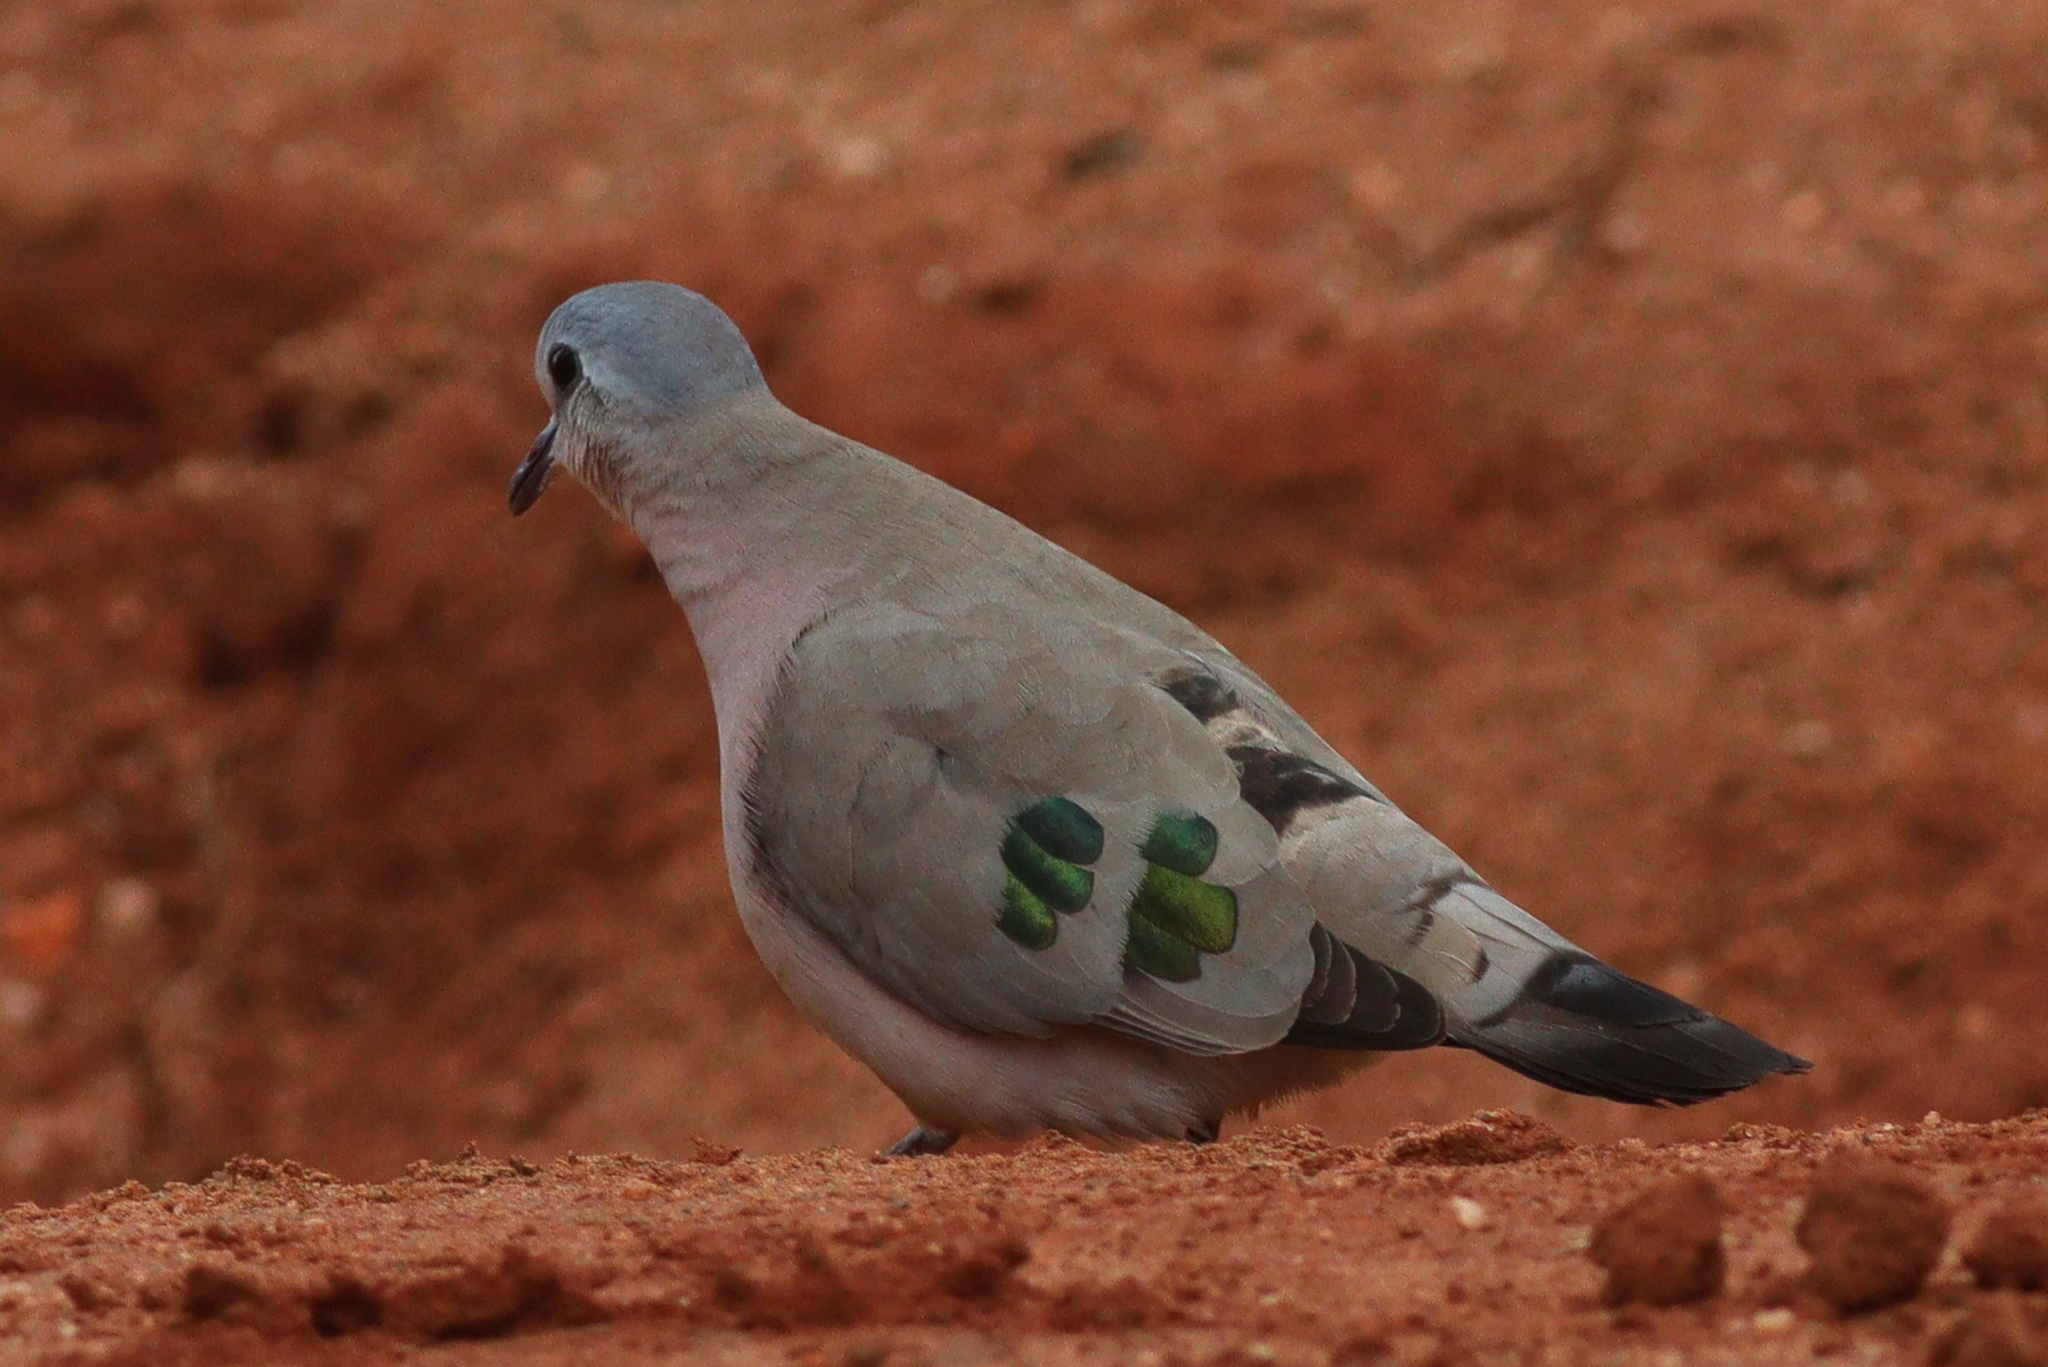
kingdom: Animalia
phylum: Chordata
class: Aves
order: Columbiformes
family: Columbidae
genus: Turtur
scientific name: Turtur chalcospilos
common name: Emerald-spotted wood dove
